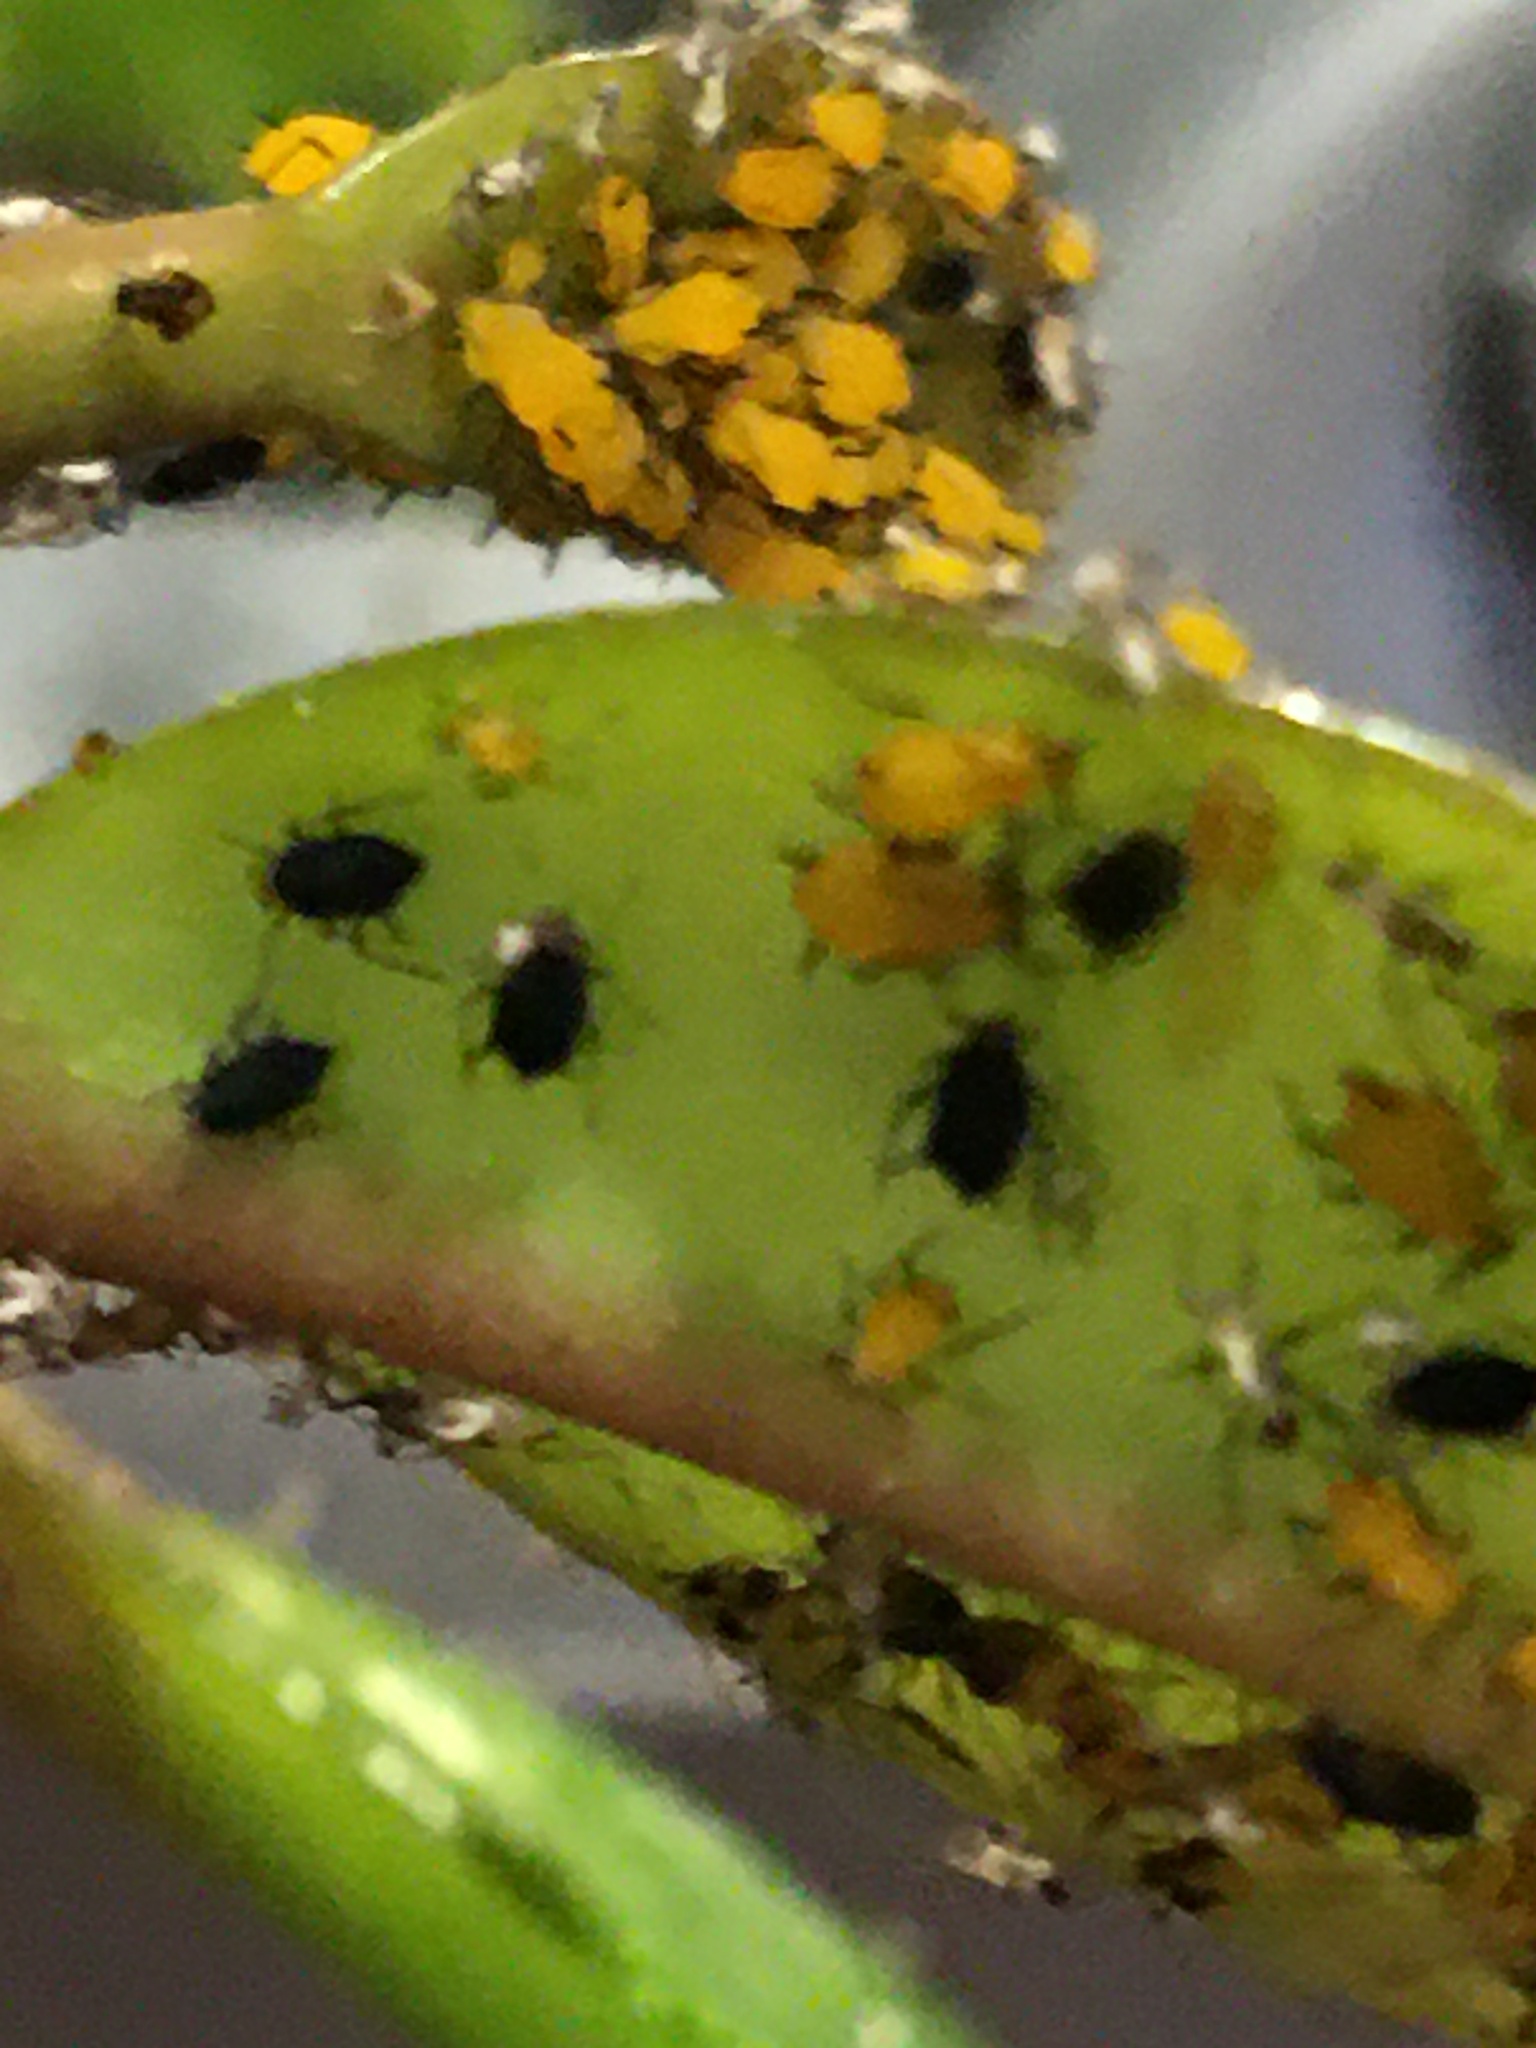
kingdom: Animalia
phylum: Arthropoda
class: Insecta
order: Hemiptera
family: Aphididae
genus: Aphis
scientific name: Aphis nerii
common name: Oleander aphid
